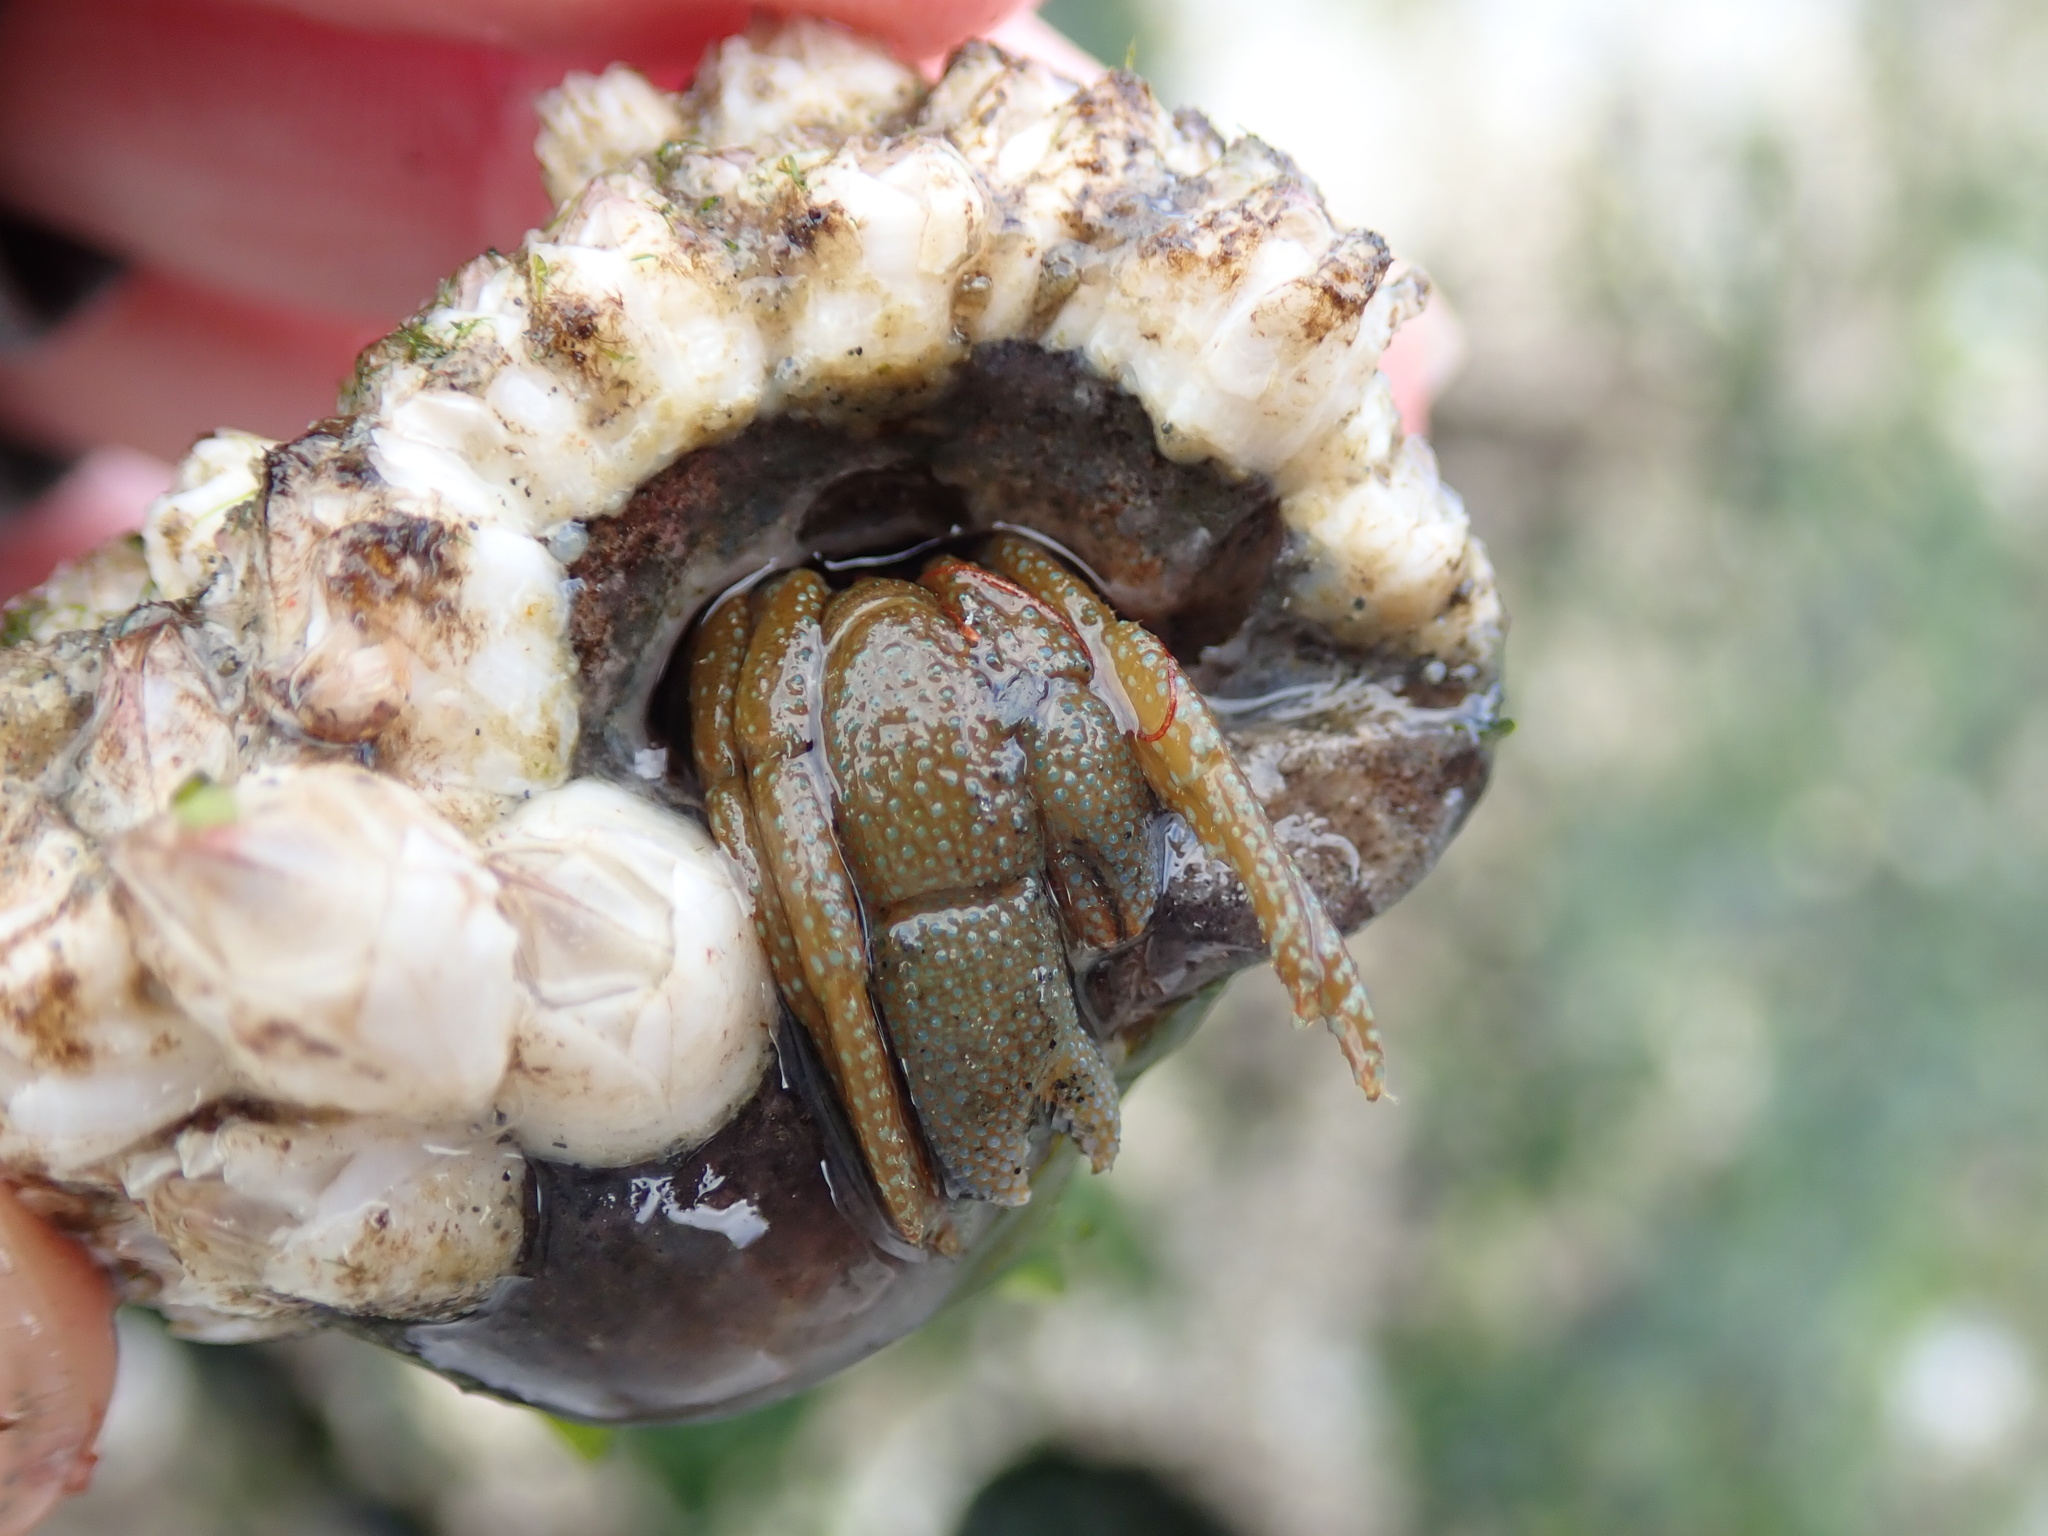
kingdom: Animalia
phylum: Arthropoda
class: Malacostraca
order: Decapoda
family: Paguridae
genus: Pagurus
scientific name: Pagurus granosimanus
